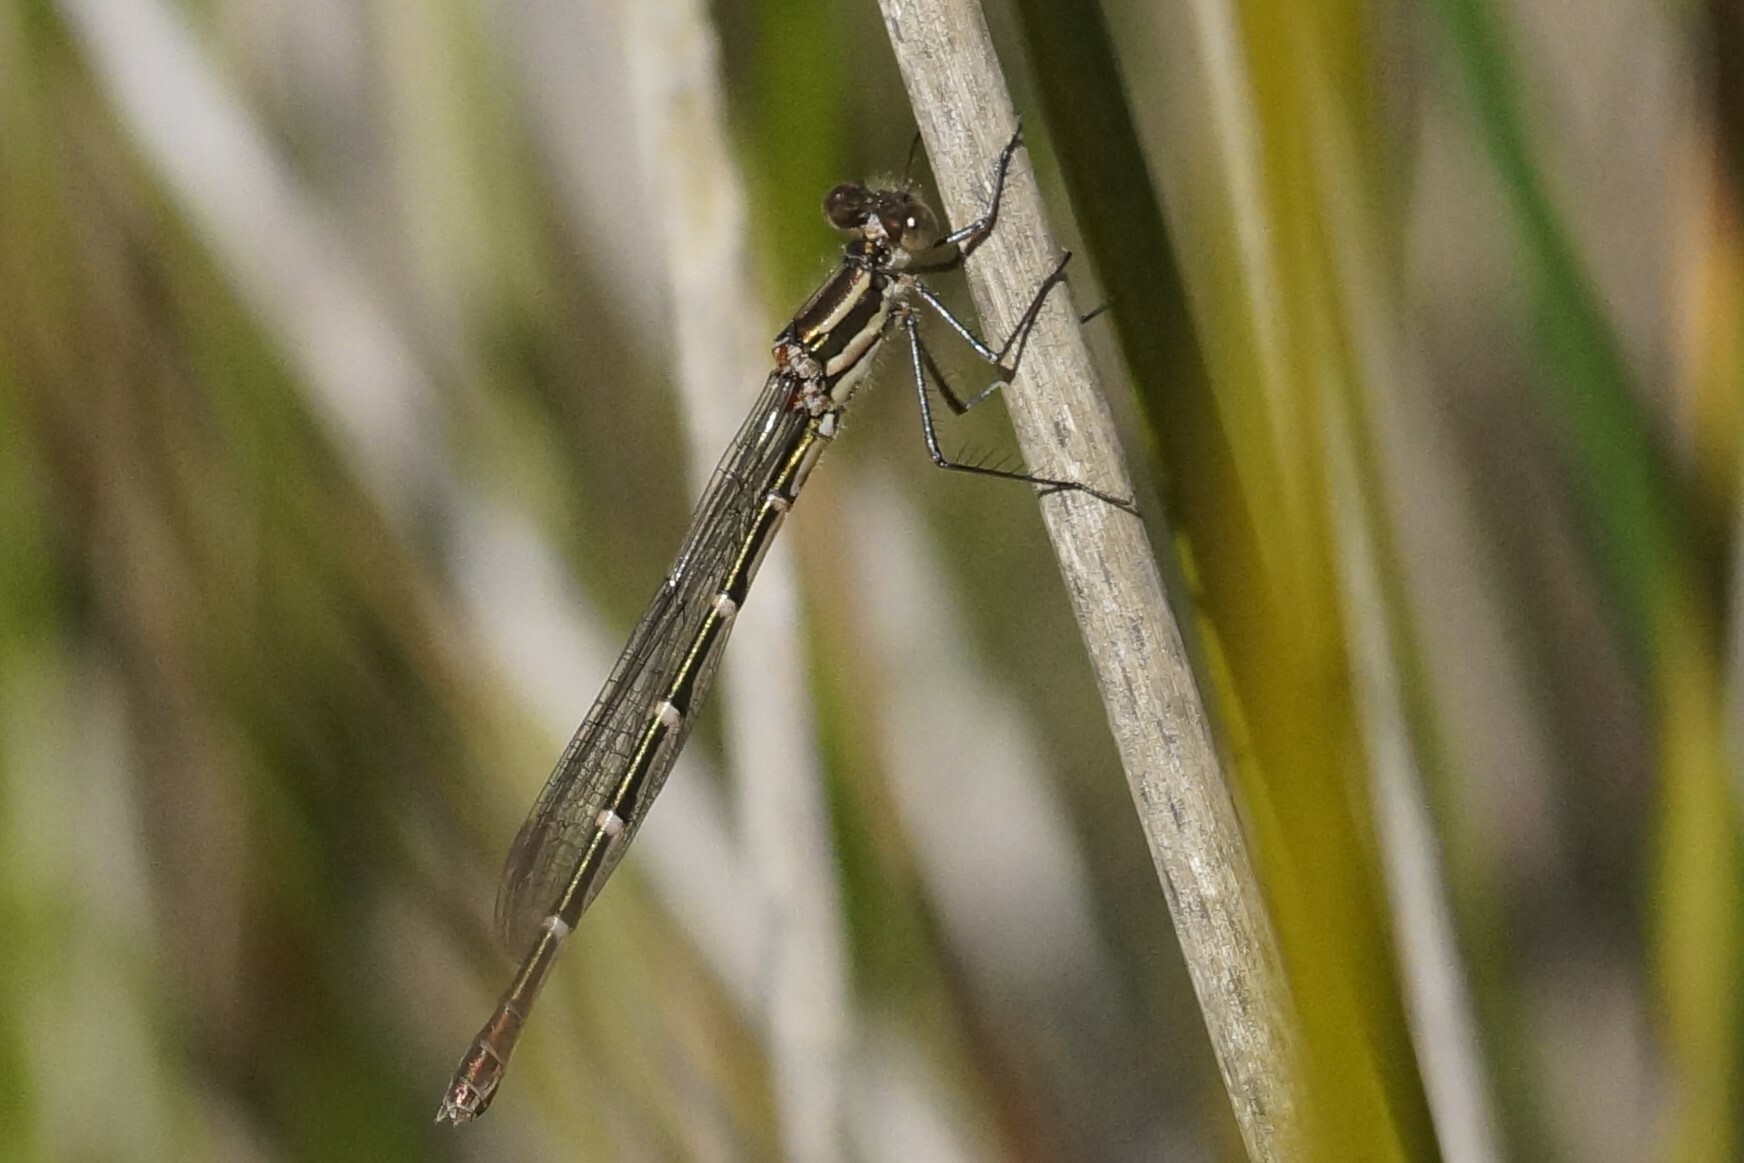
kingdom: Animalia
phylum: Arthropoda
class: Insecta
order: Odonata
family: Lestidae
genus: Austrolestes
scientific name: Austrolestes annulosus
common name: Blue ringtail
